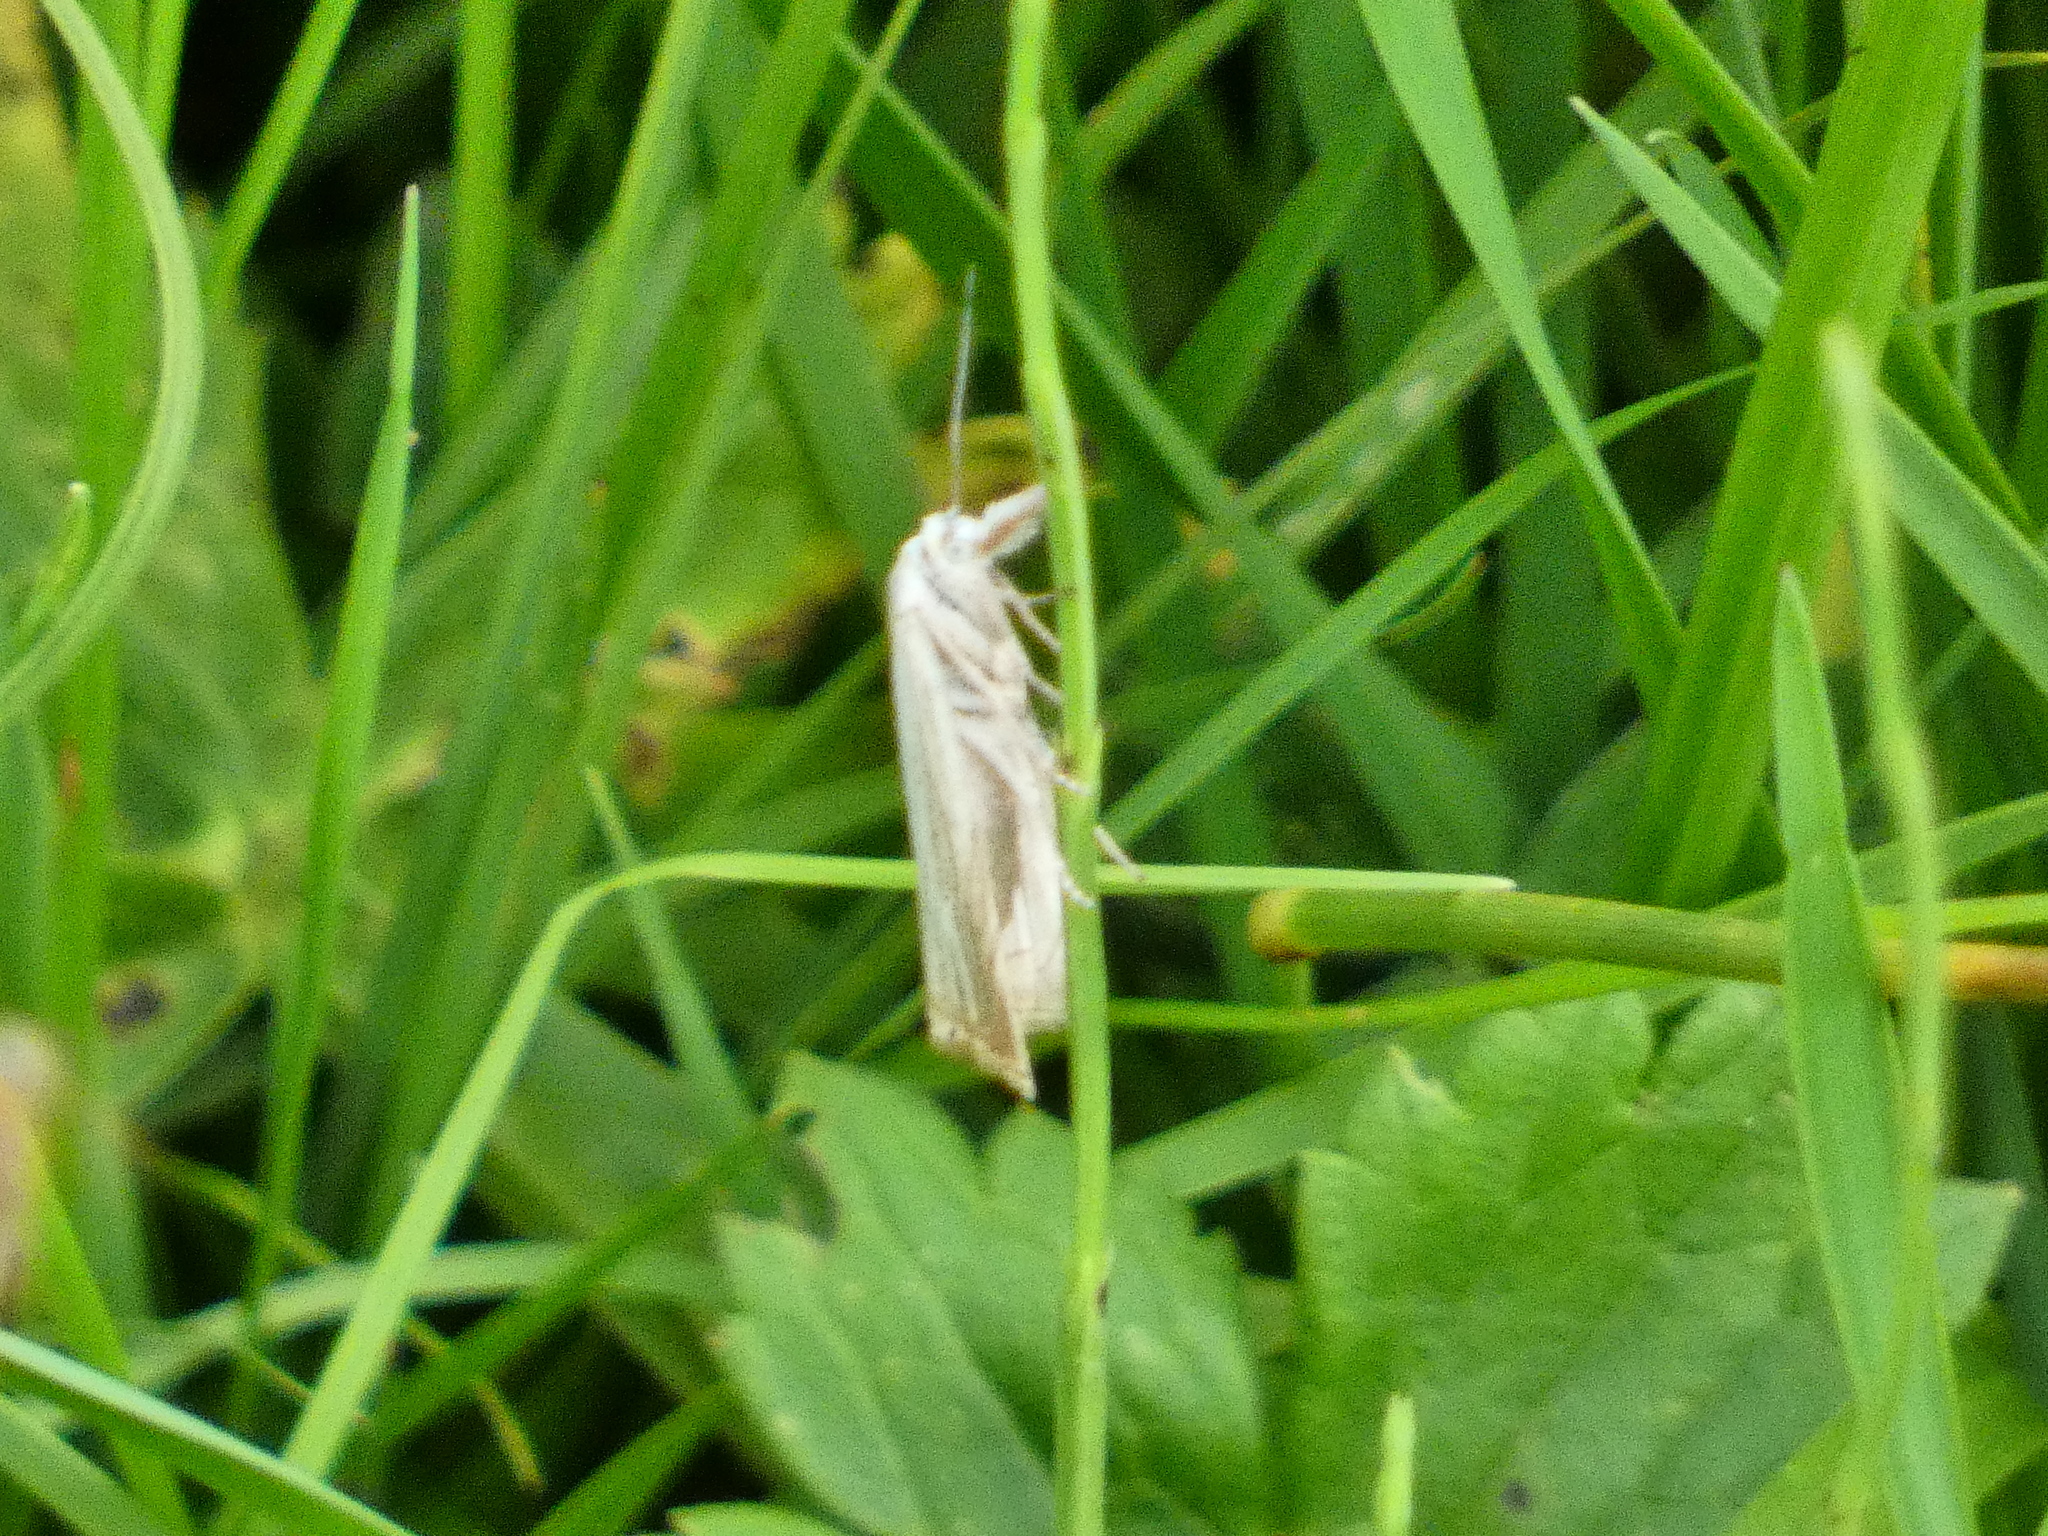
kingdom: Animalia
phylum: Arthropoda
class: Insecta
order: Lepidoptera
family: Crambidae
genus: Chrysoteuchia
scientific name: Chrysoteuchia culmella
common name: Garden grass-veneer
